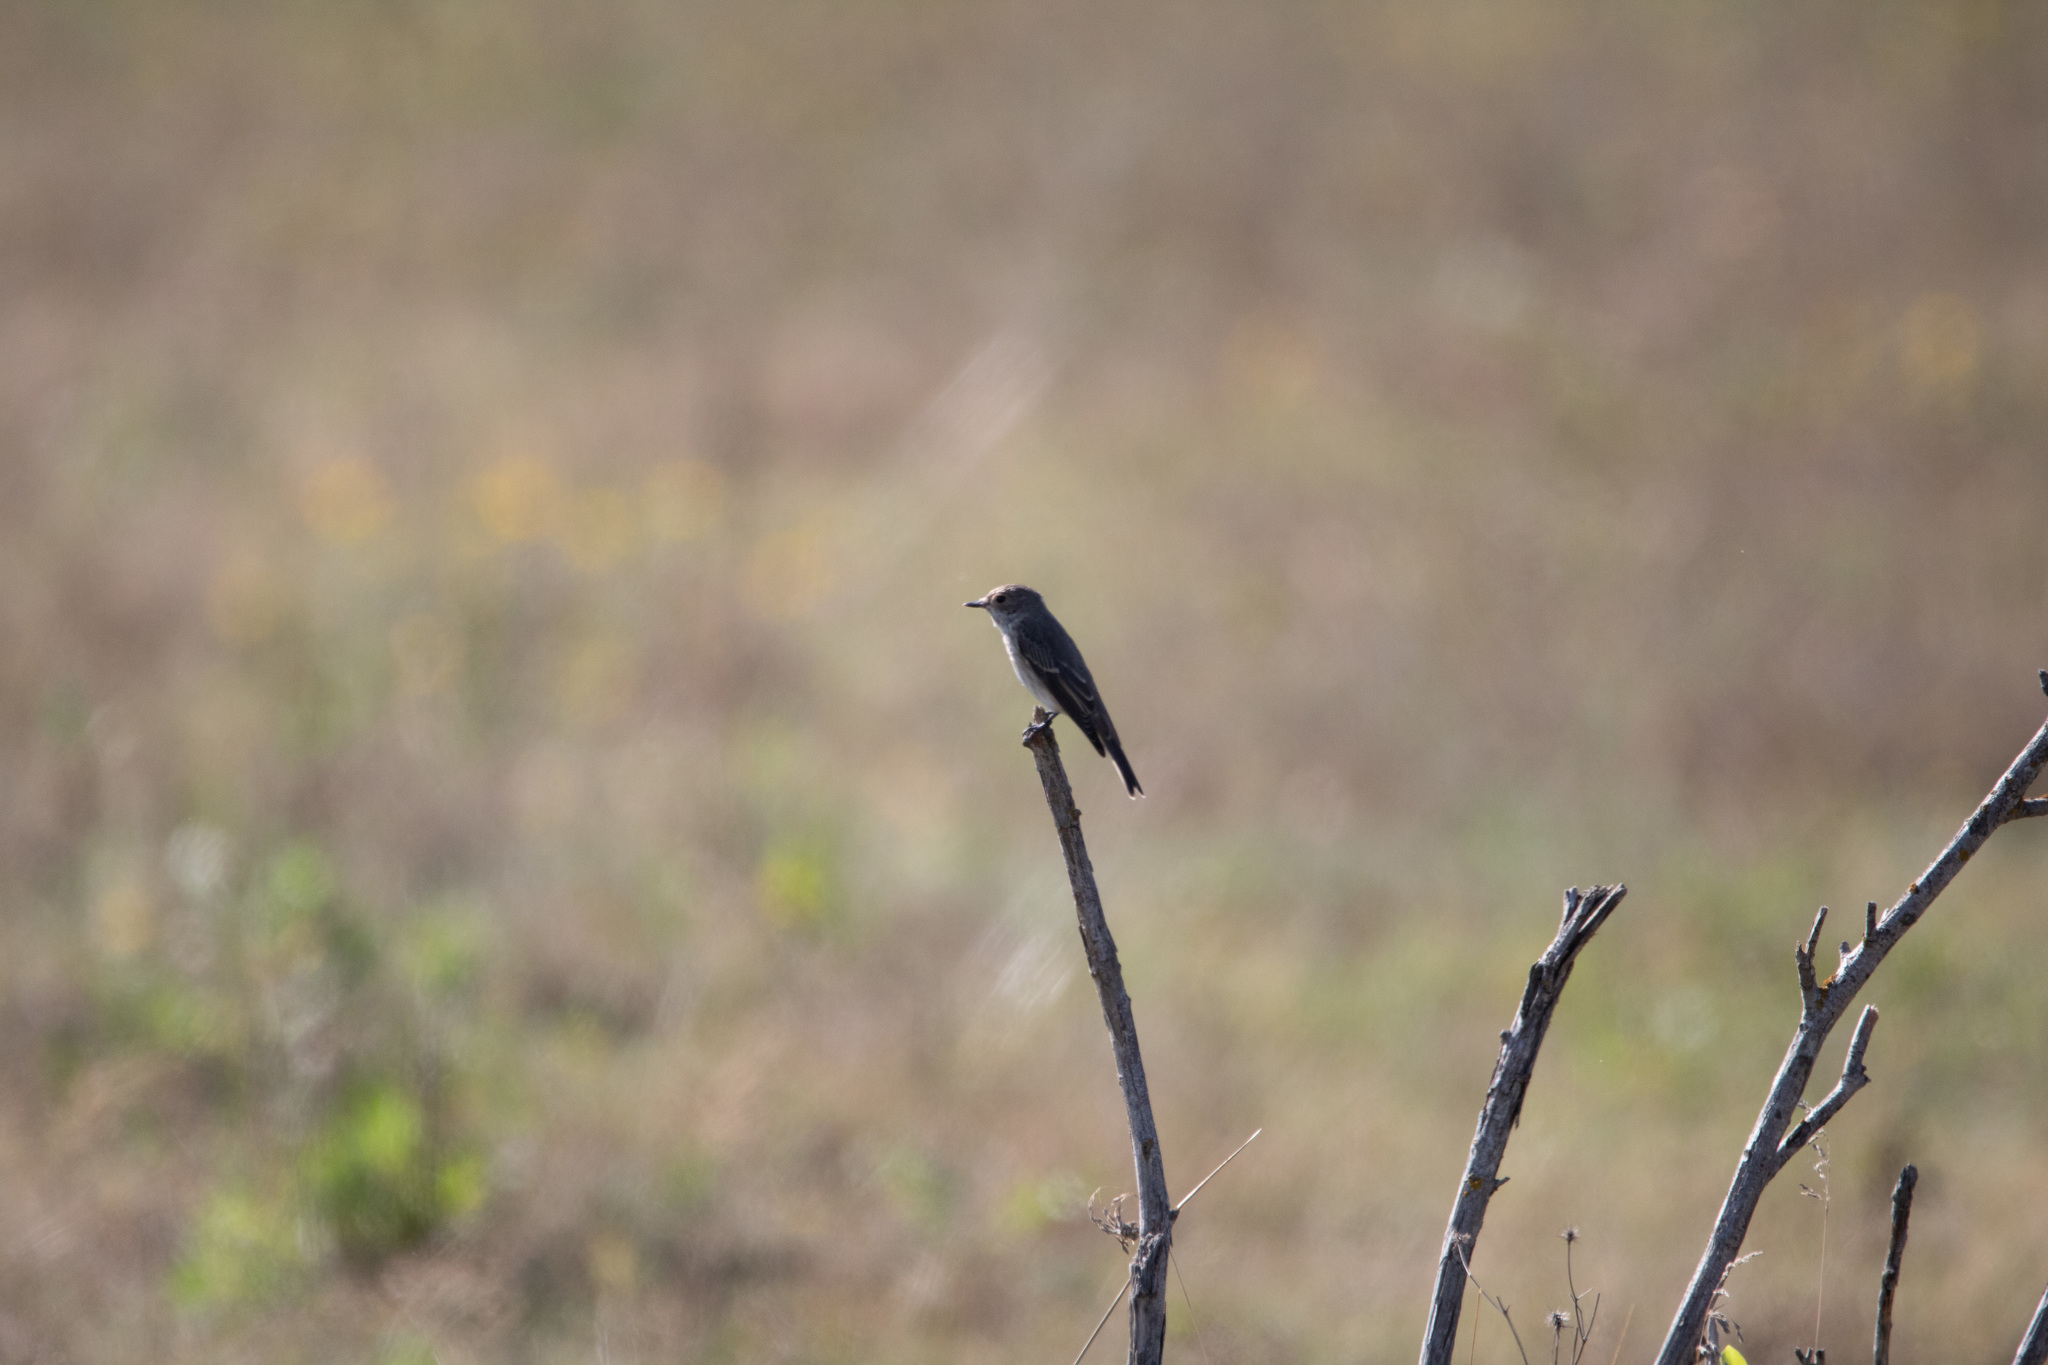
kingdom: Animalia
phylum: Chordata
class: Aves
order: Passeriformes
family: Muscicapidae
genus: Muscicapa
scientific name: Muscicapa striata
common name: Spotted flycatcher
